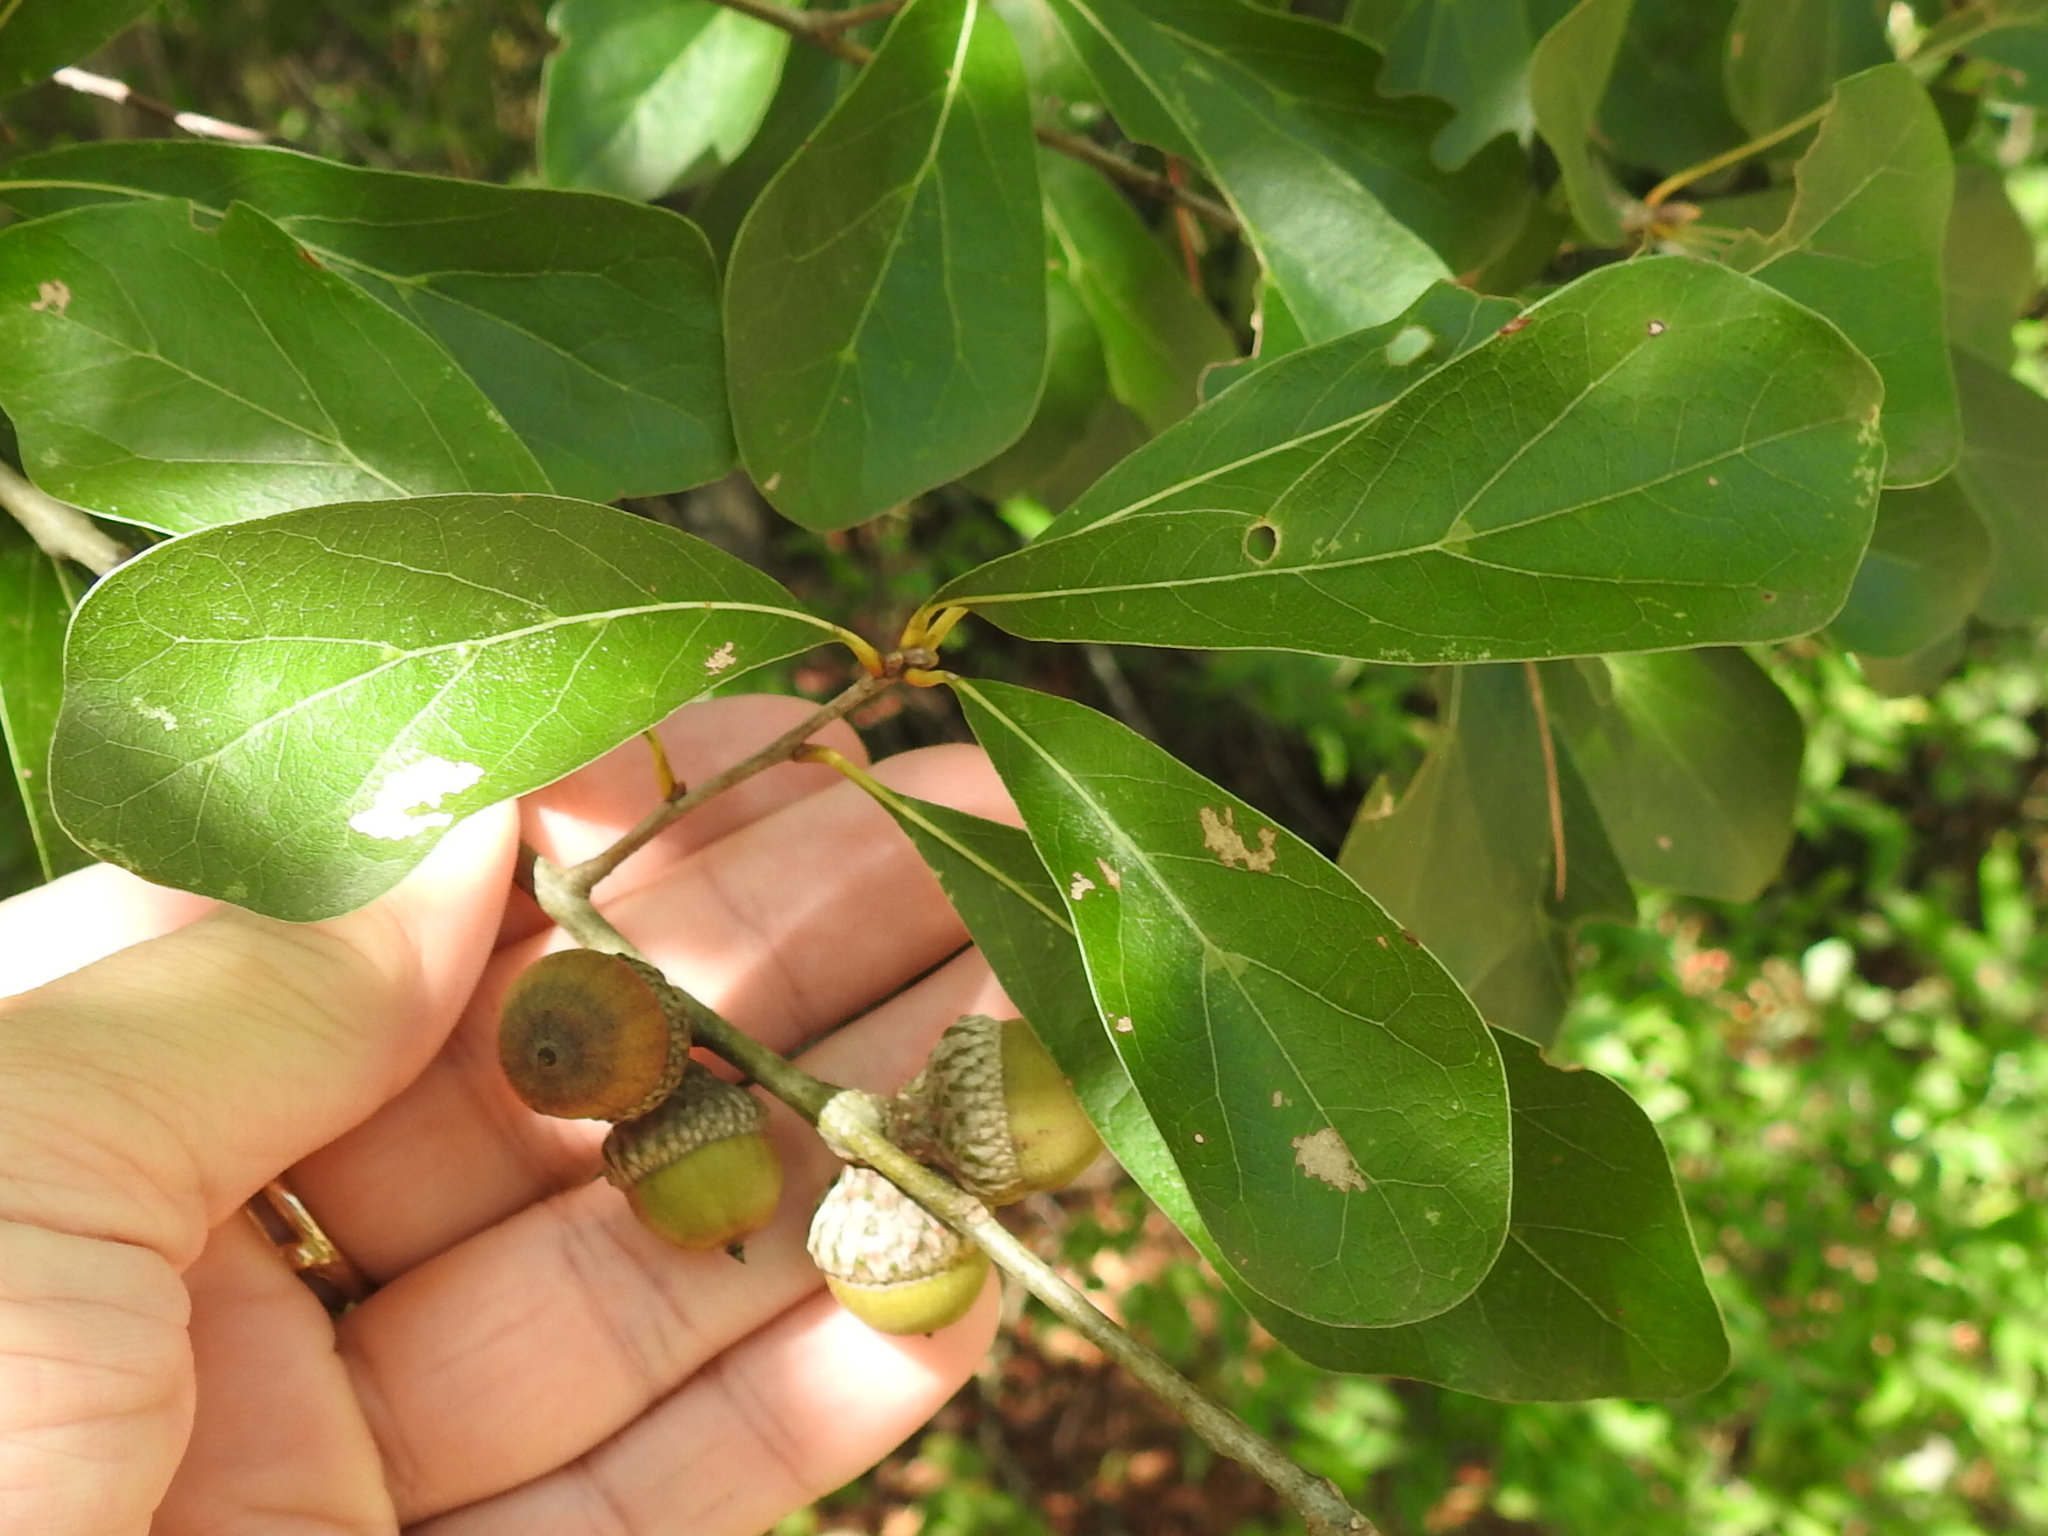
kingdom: Plantae
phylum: Tracheophyta
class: Magnoliopsida
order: Fagales
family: Fagaceae
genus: Quercus
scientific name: Quercus nigra
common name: Water oak
